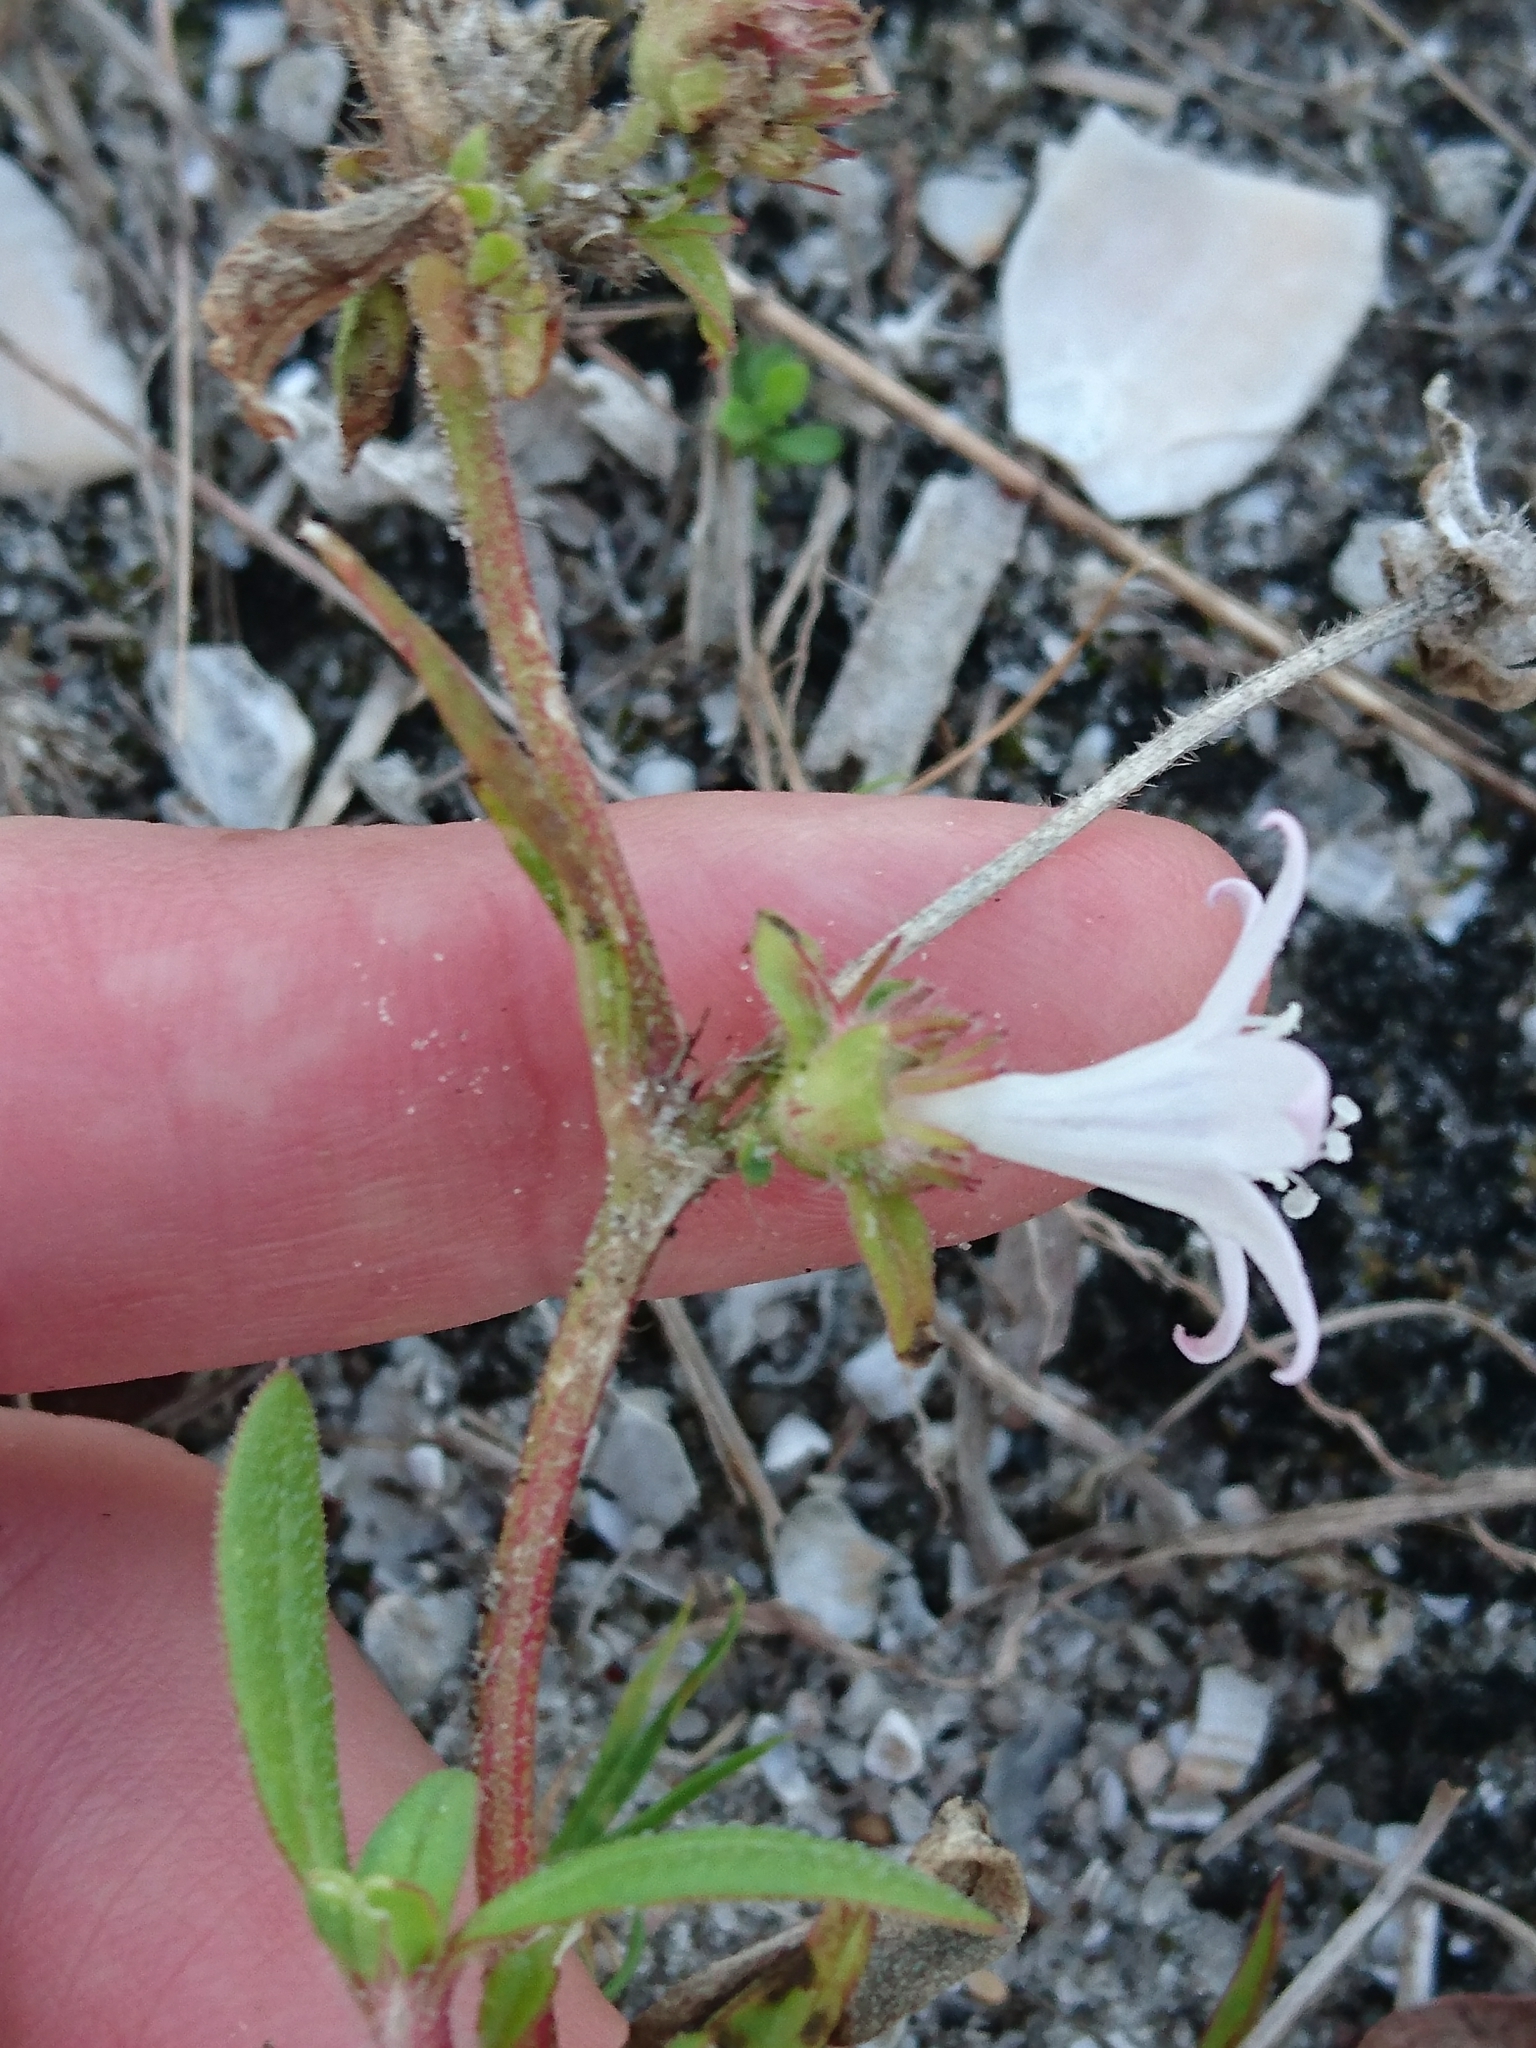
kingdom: Plantae
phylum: Tracheophyta
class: Magnoliopsida
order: Gentianales
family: Rubiaceae
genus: Richardia
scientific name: Richardia grandiflora
